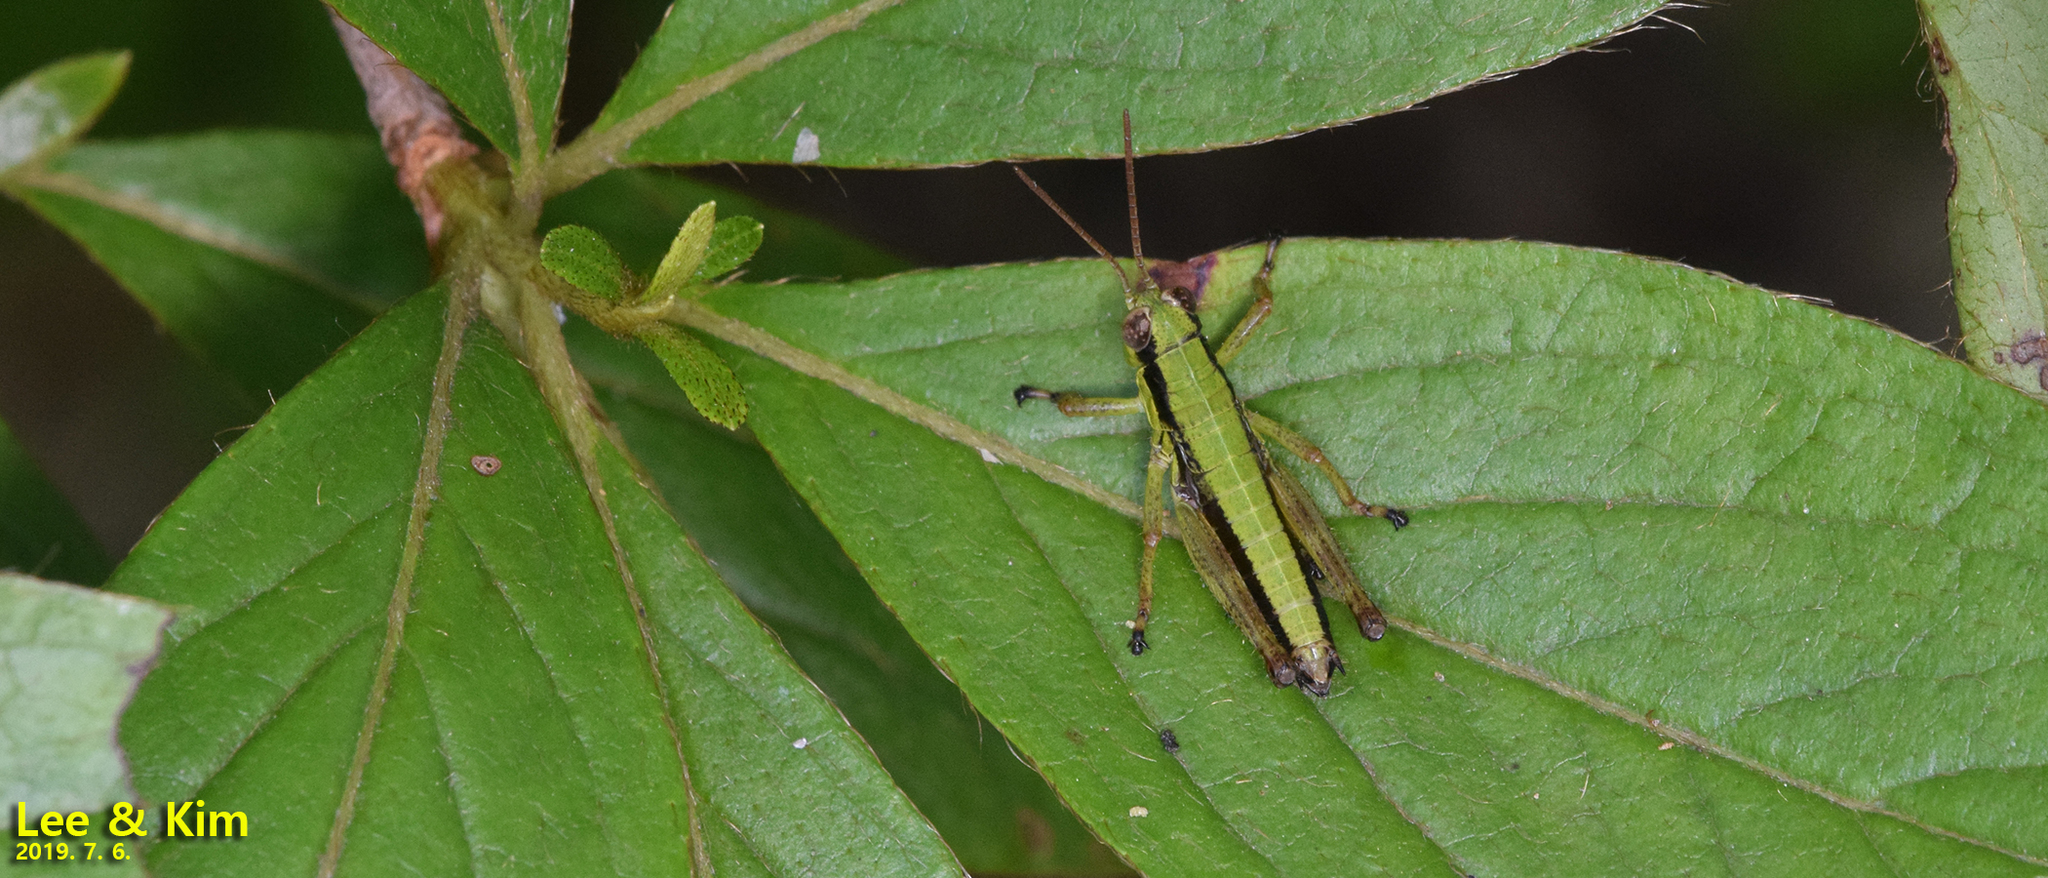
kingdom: Animalia
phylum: Arthropoda
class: Insecta
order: Orthoptera
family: Acrididae
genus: Zubovskya
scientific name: Zubovskya koreana
